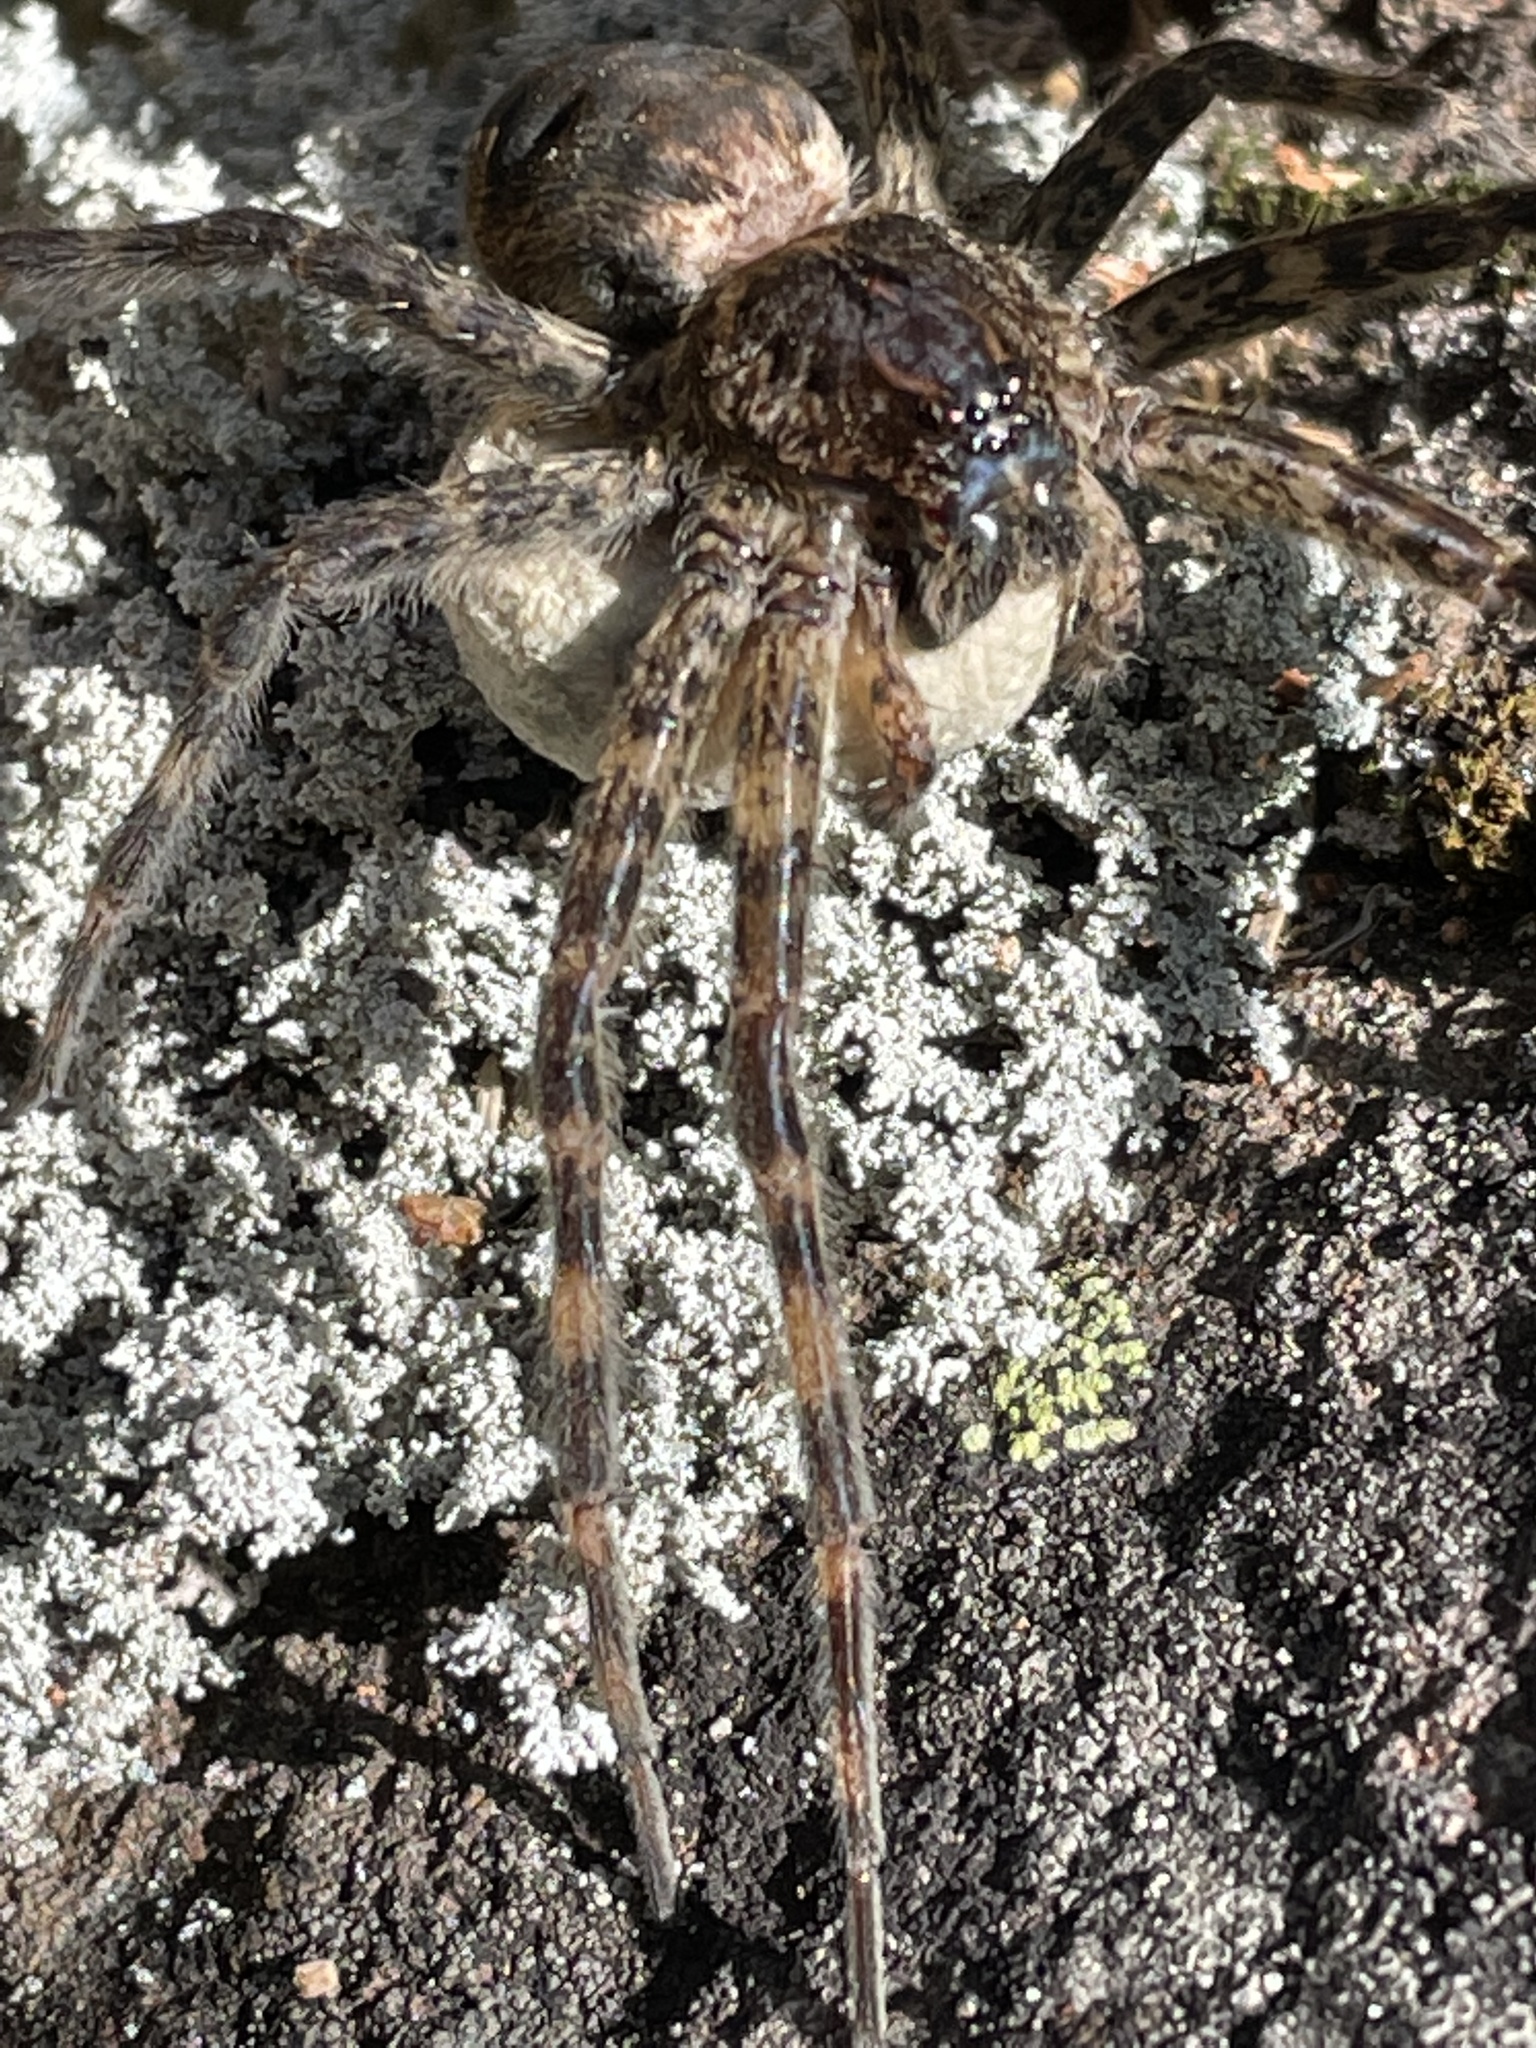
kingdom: Animalia
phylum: Arthropoda
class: Arachnida
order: Araneae
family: Pisauridae
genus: Dolomedes
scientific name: Dolomedes tenebrosus
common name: Dark fishing spider
